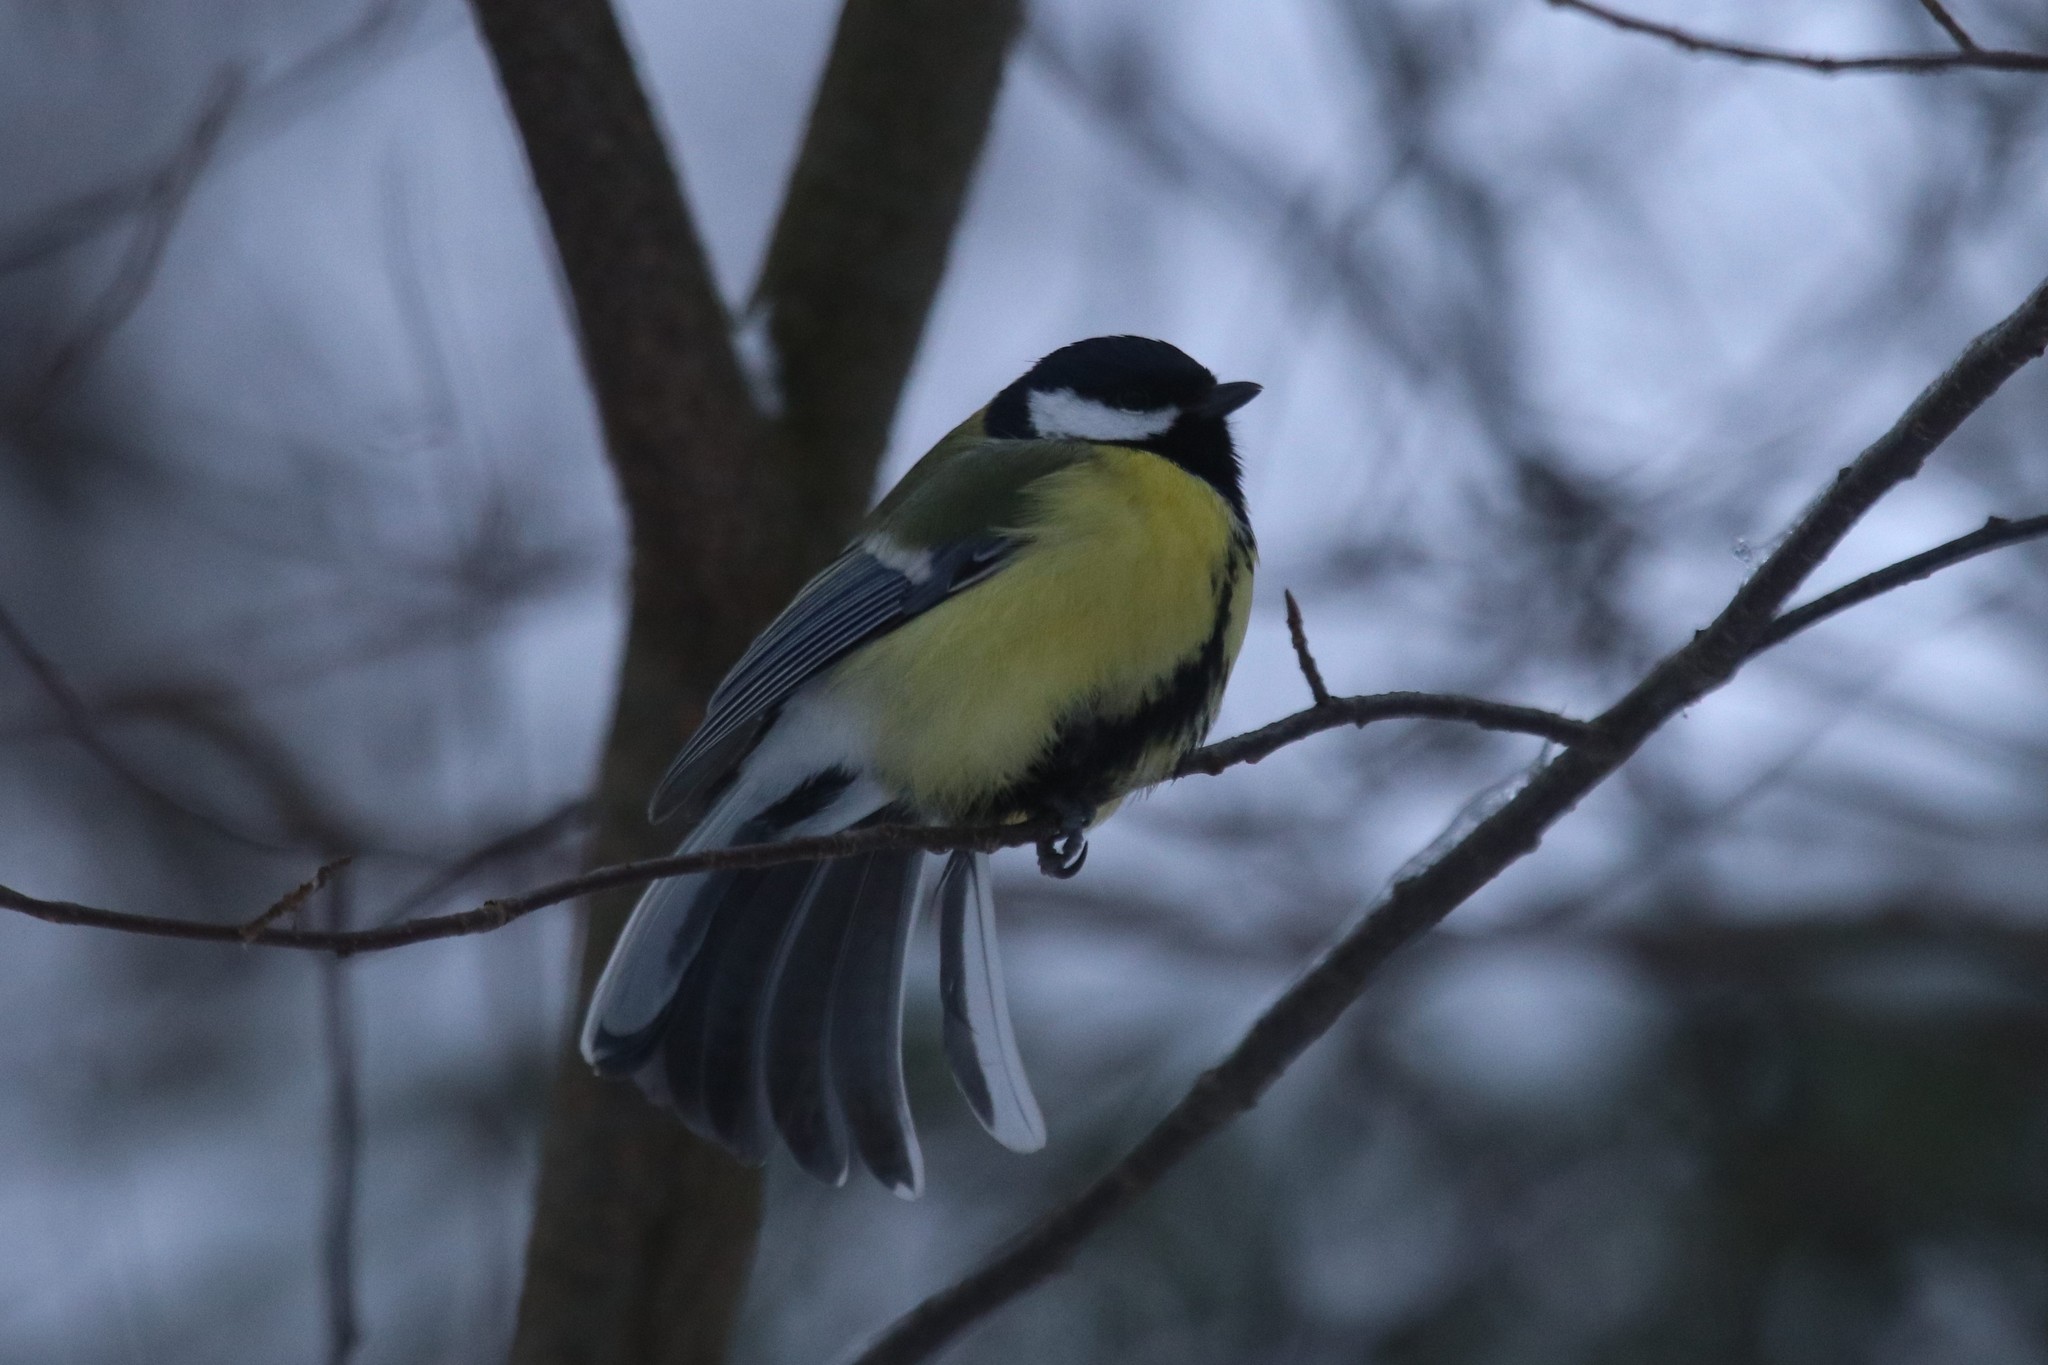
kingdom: Animalia
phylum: Chordata
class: Aves
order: Passeriformes
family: Paridae
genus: Parus
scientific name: Parus major
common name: Great tit
